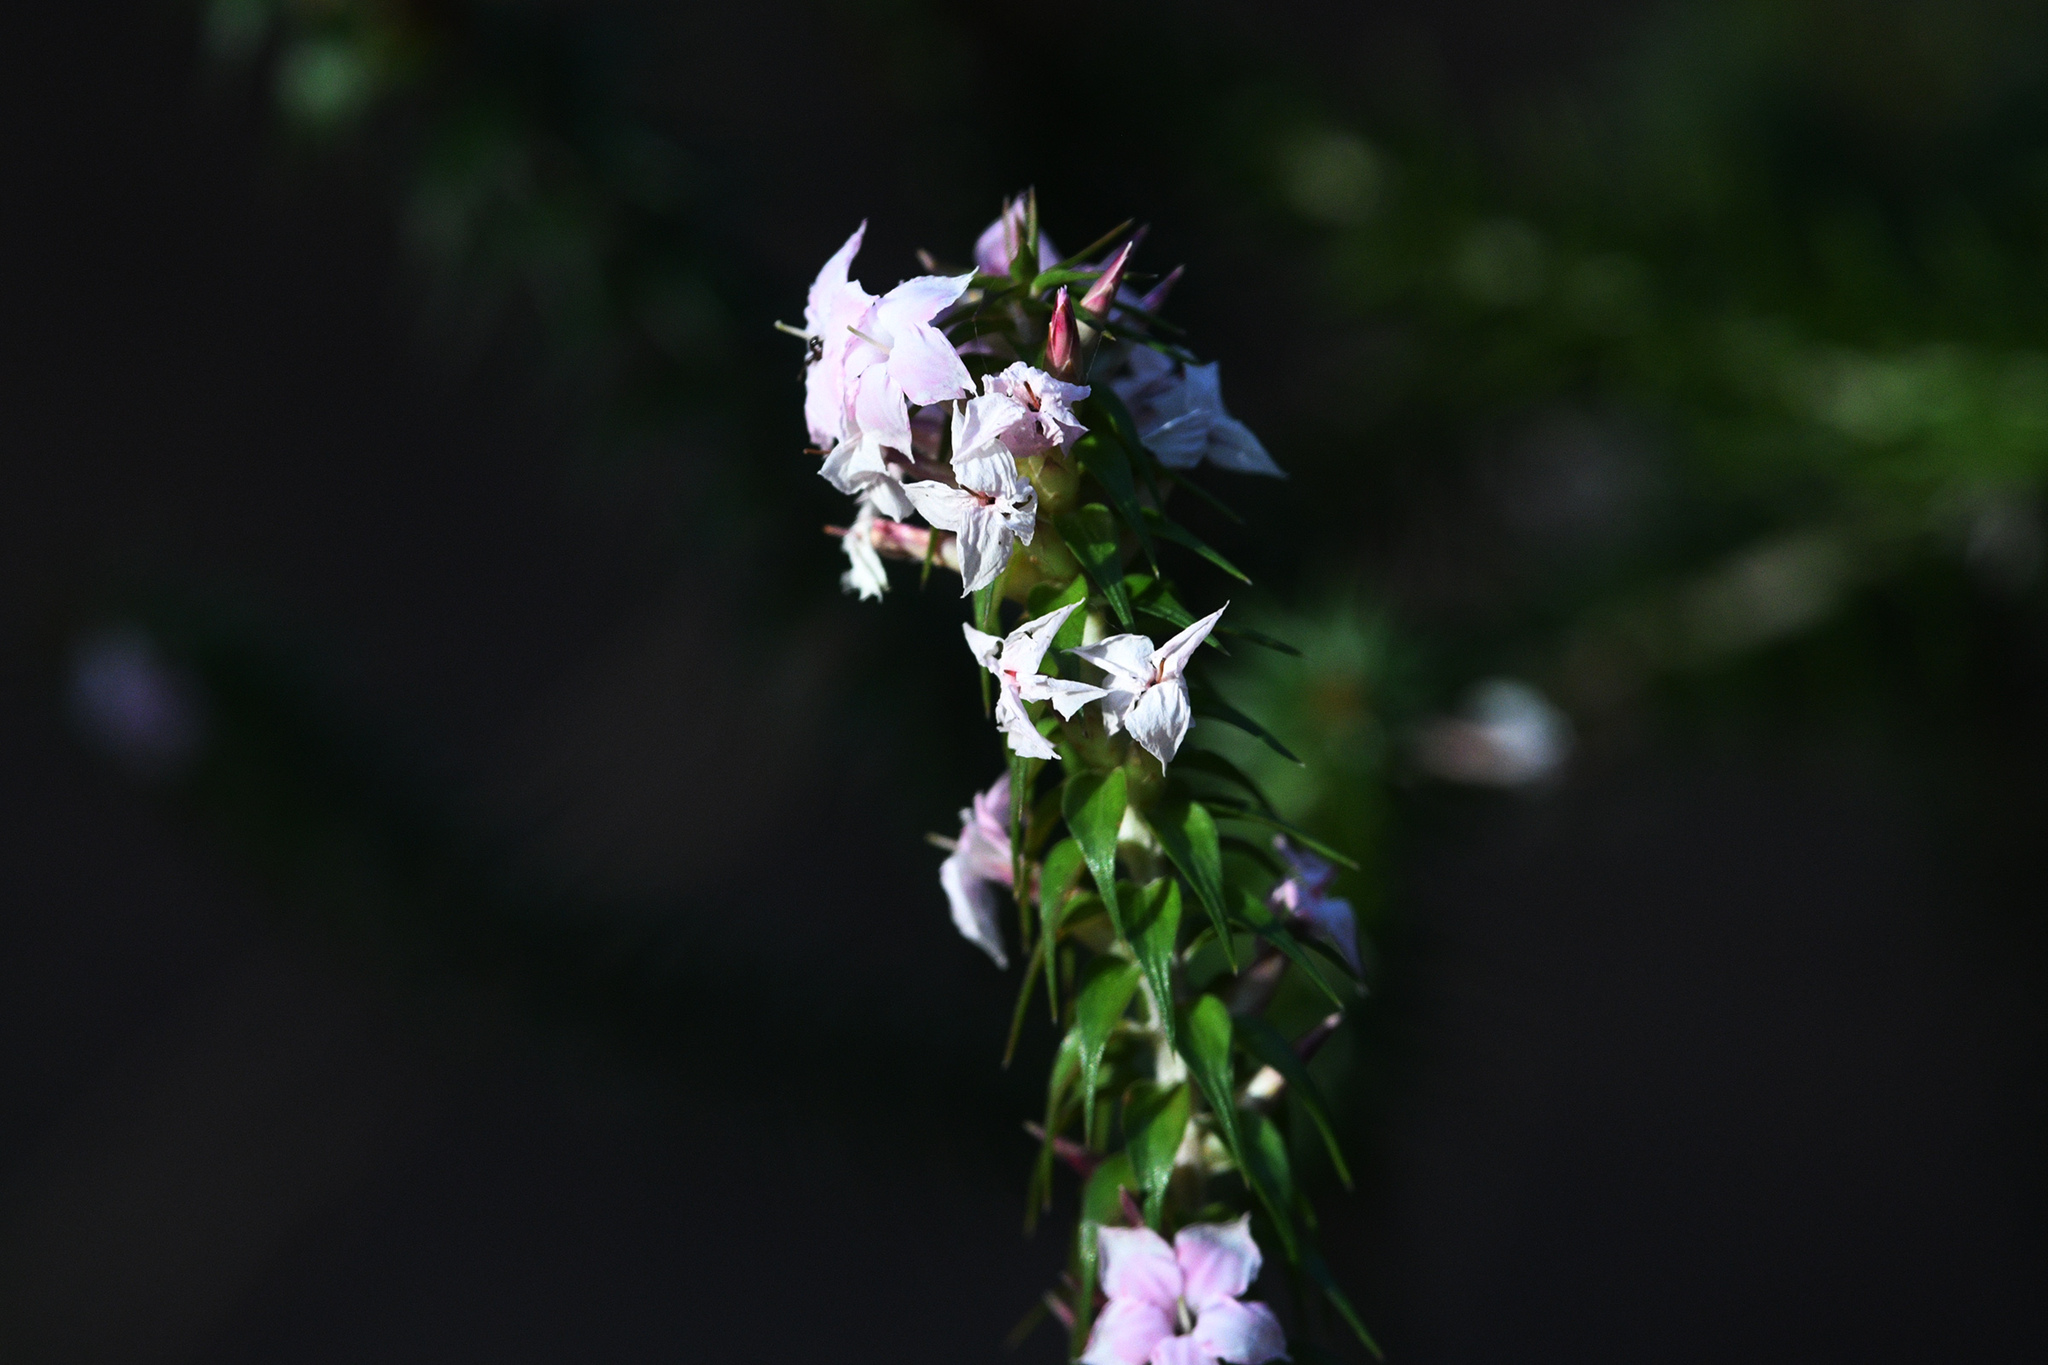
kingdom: Plantae
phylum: Tracheophyta
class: Magnoliopsida
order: Ericales
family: Ericaceae
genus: Woollsia
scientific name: Woollsia pungens
